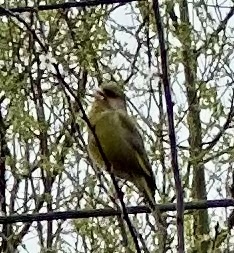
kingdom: Plantae
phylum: Tracheophyta
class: Liliopsida
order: Poales
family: Poaceae
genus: Chloris
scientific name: Chloris chloris
